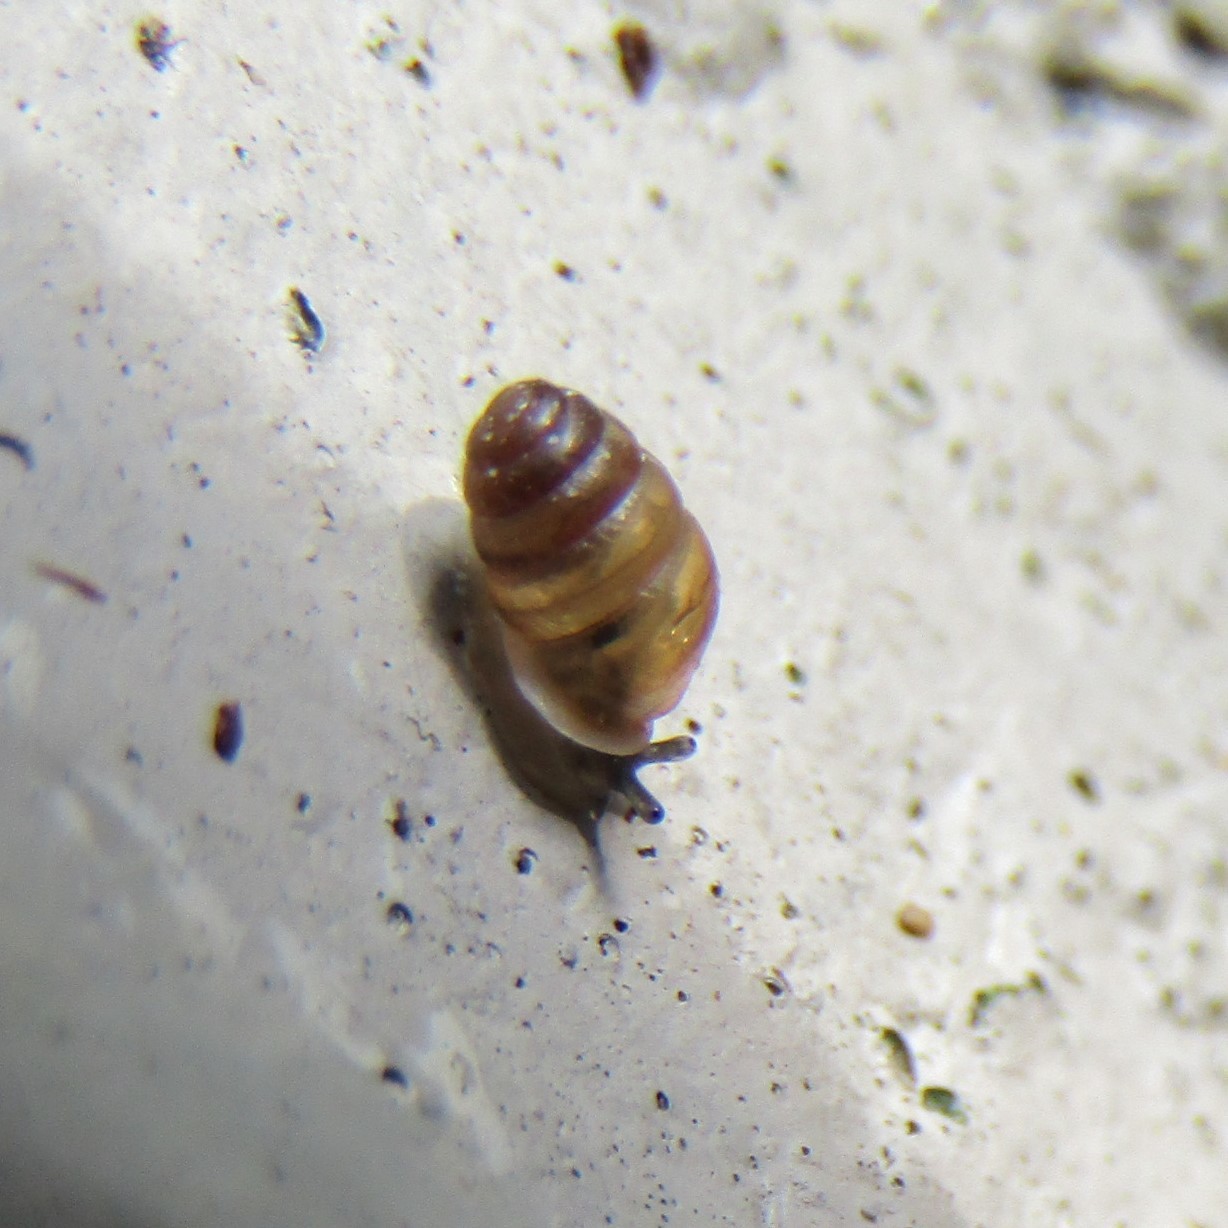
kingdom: Animalia
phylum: Mollusca
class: Gastropoda
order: Stylommatophora
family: Lauriidae
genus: Lauria
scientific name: Lauria cylindracea
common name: Common chrysalis snail
